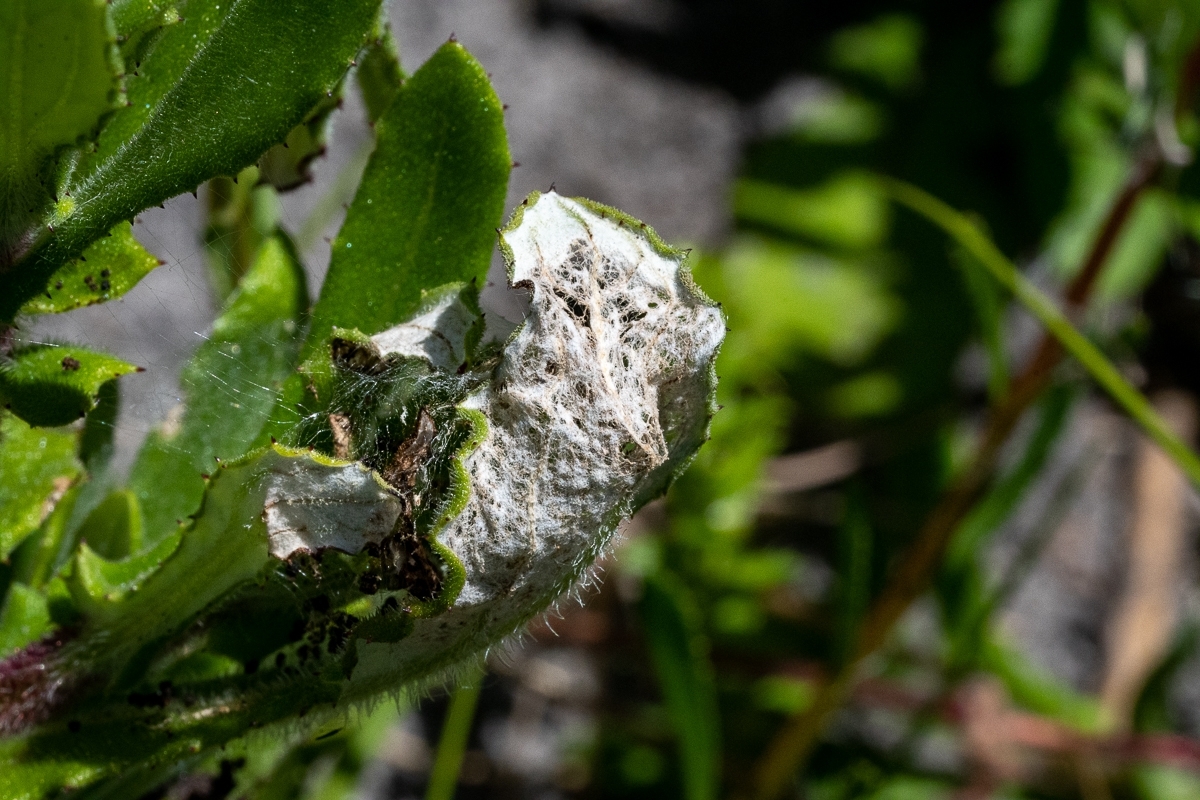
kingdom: Animalia
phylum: Arthropoda
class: Insecta
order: Lepidoptera
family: Nymphalidae
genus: Vanessa
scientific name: Vanessa cardui
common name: Painted lady
